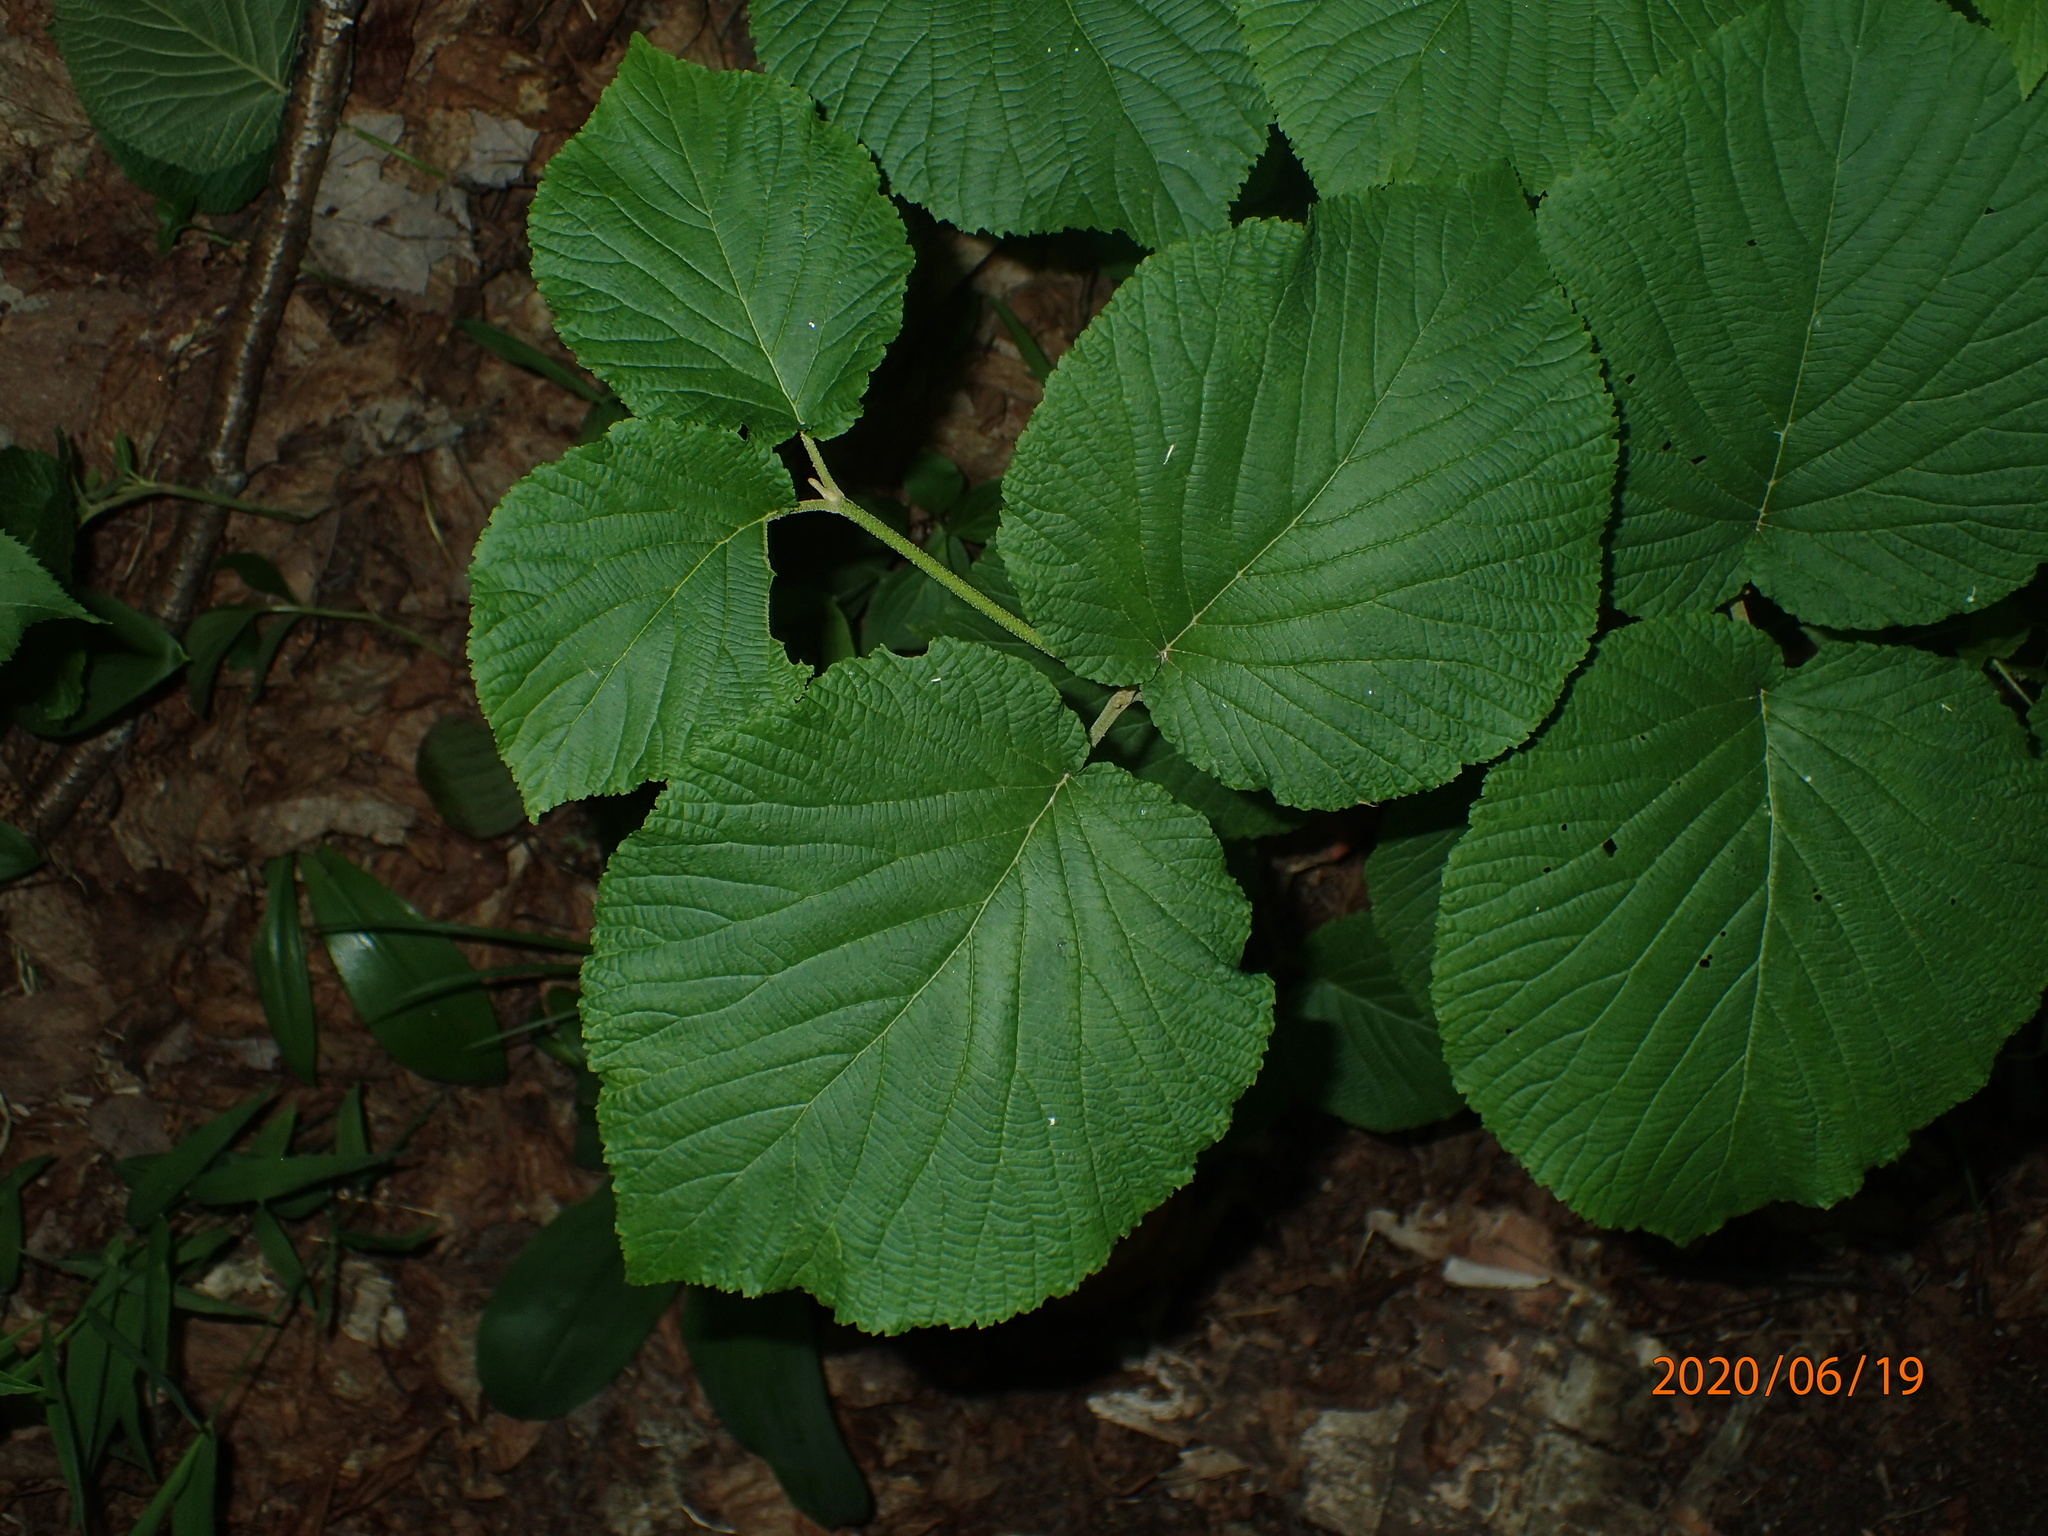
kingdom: Plantae
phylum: Tracheophyta
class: Magnoliopsida
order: Dipsacales
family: Viburnaceae
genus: Viburnum
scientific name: Viburnum lantanoides
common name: Hobblebush
